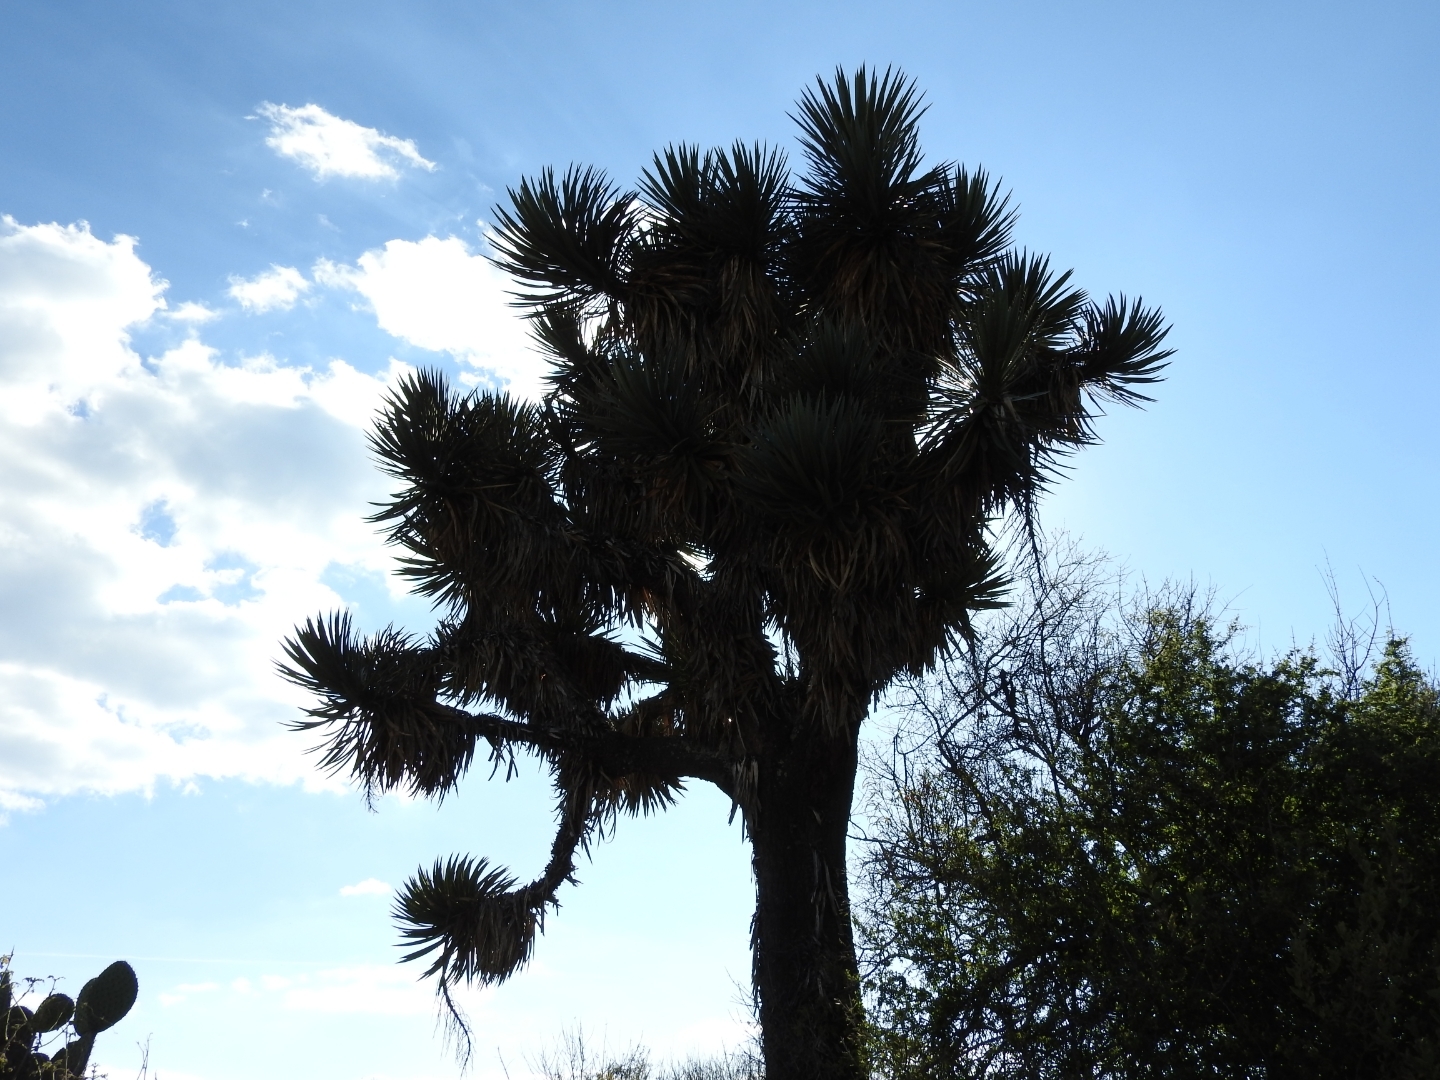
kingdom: Plantae
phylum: Tracheophyta
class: Liliopsida
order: Asparagales
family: Asparagaceae
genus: Yucca
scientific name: Yucca filifera
